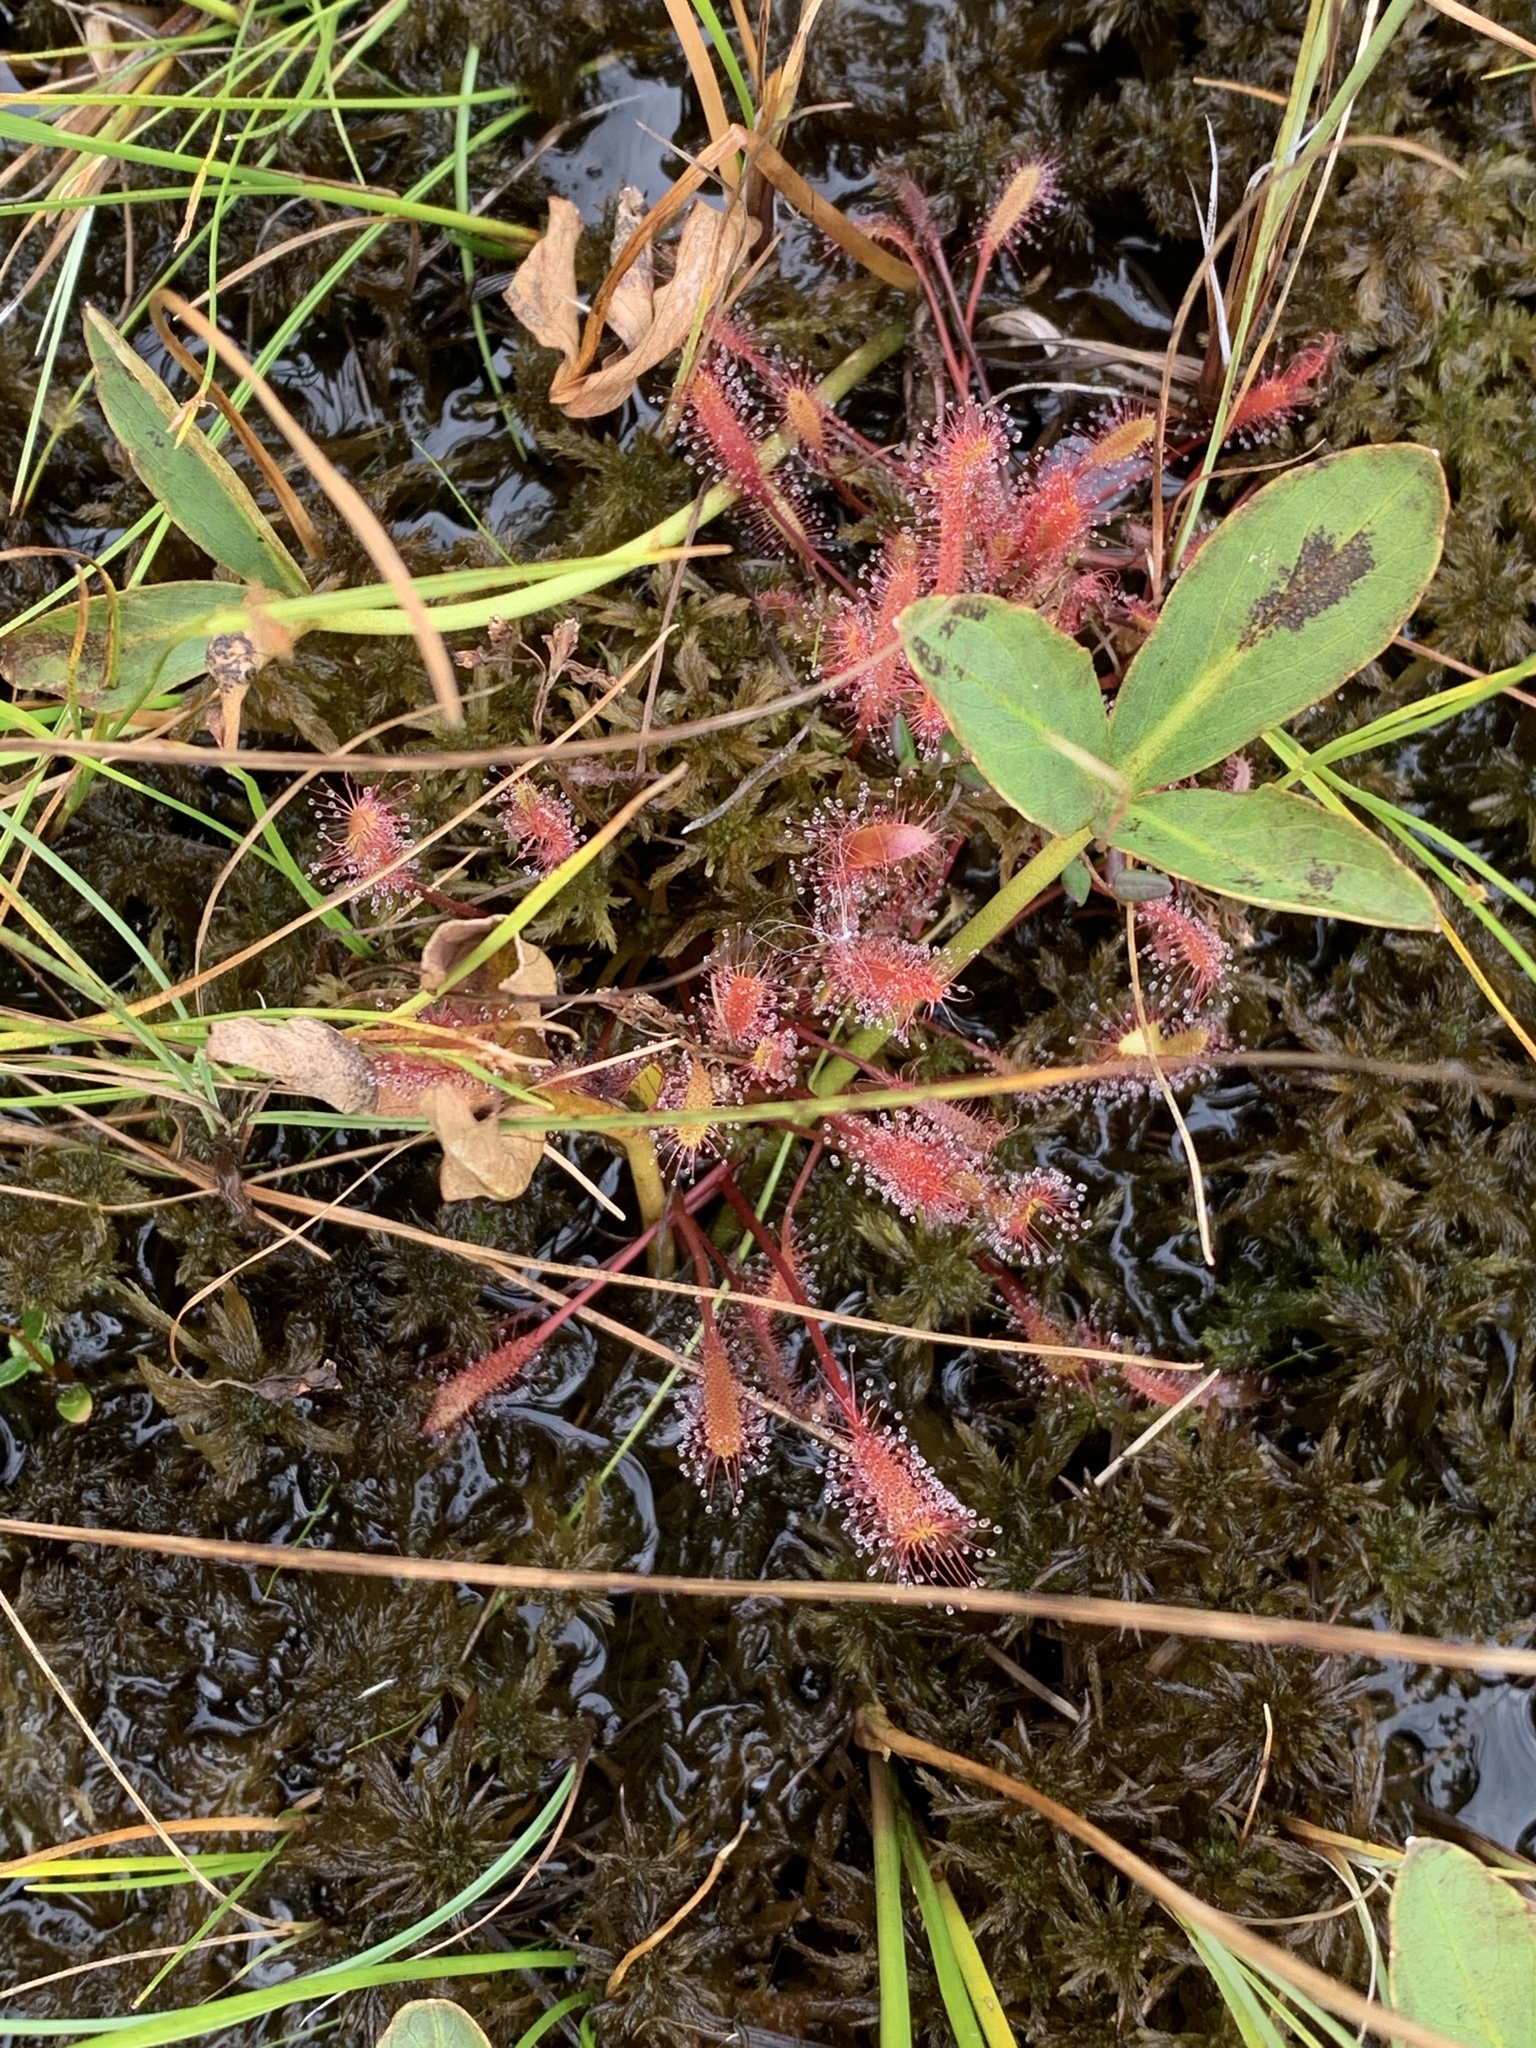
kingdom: Plantae
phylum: Tracheophyta
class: Magnoliopsida
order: Caryophyllales
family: Droseraceae
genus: Drosera
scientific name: Drosera anglica
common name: Great sundew
